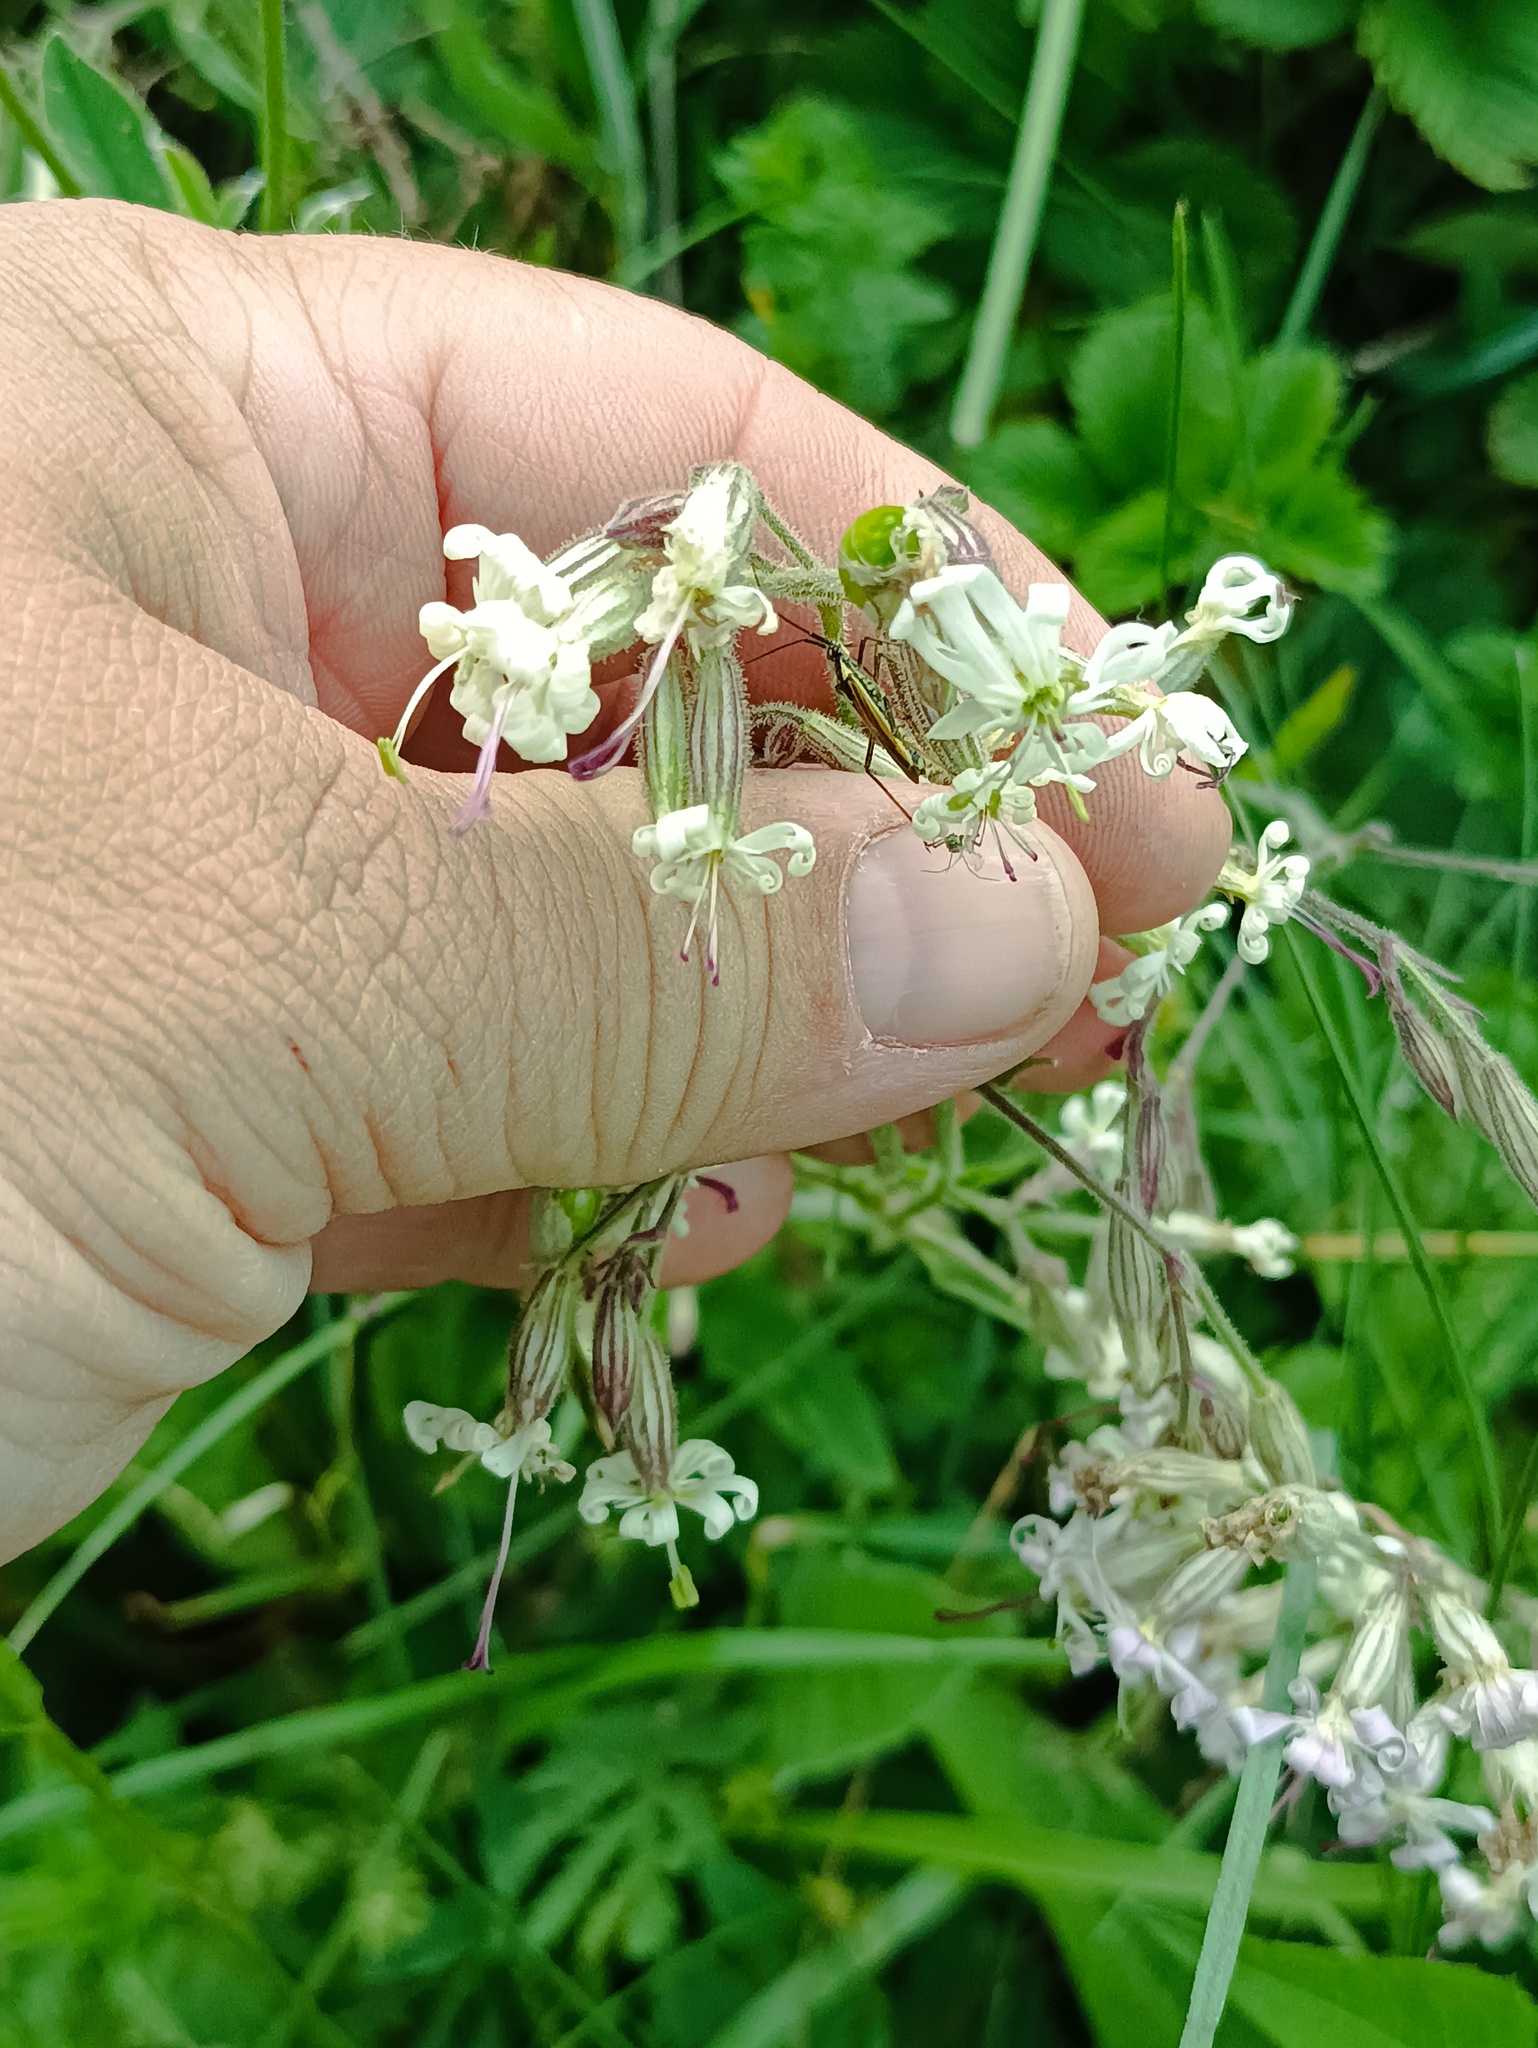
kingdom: Plantae
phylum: Tracheophyta
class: Magnoliopsida
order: Caryophyllales
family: Caryophyllaceae
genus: Silene
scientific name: Silene nutans
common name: Nottingham catchfly
